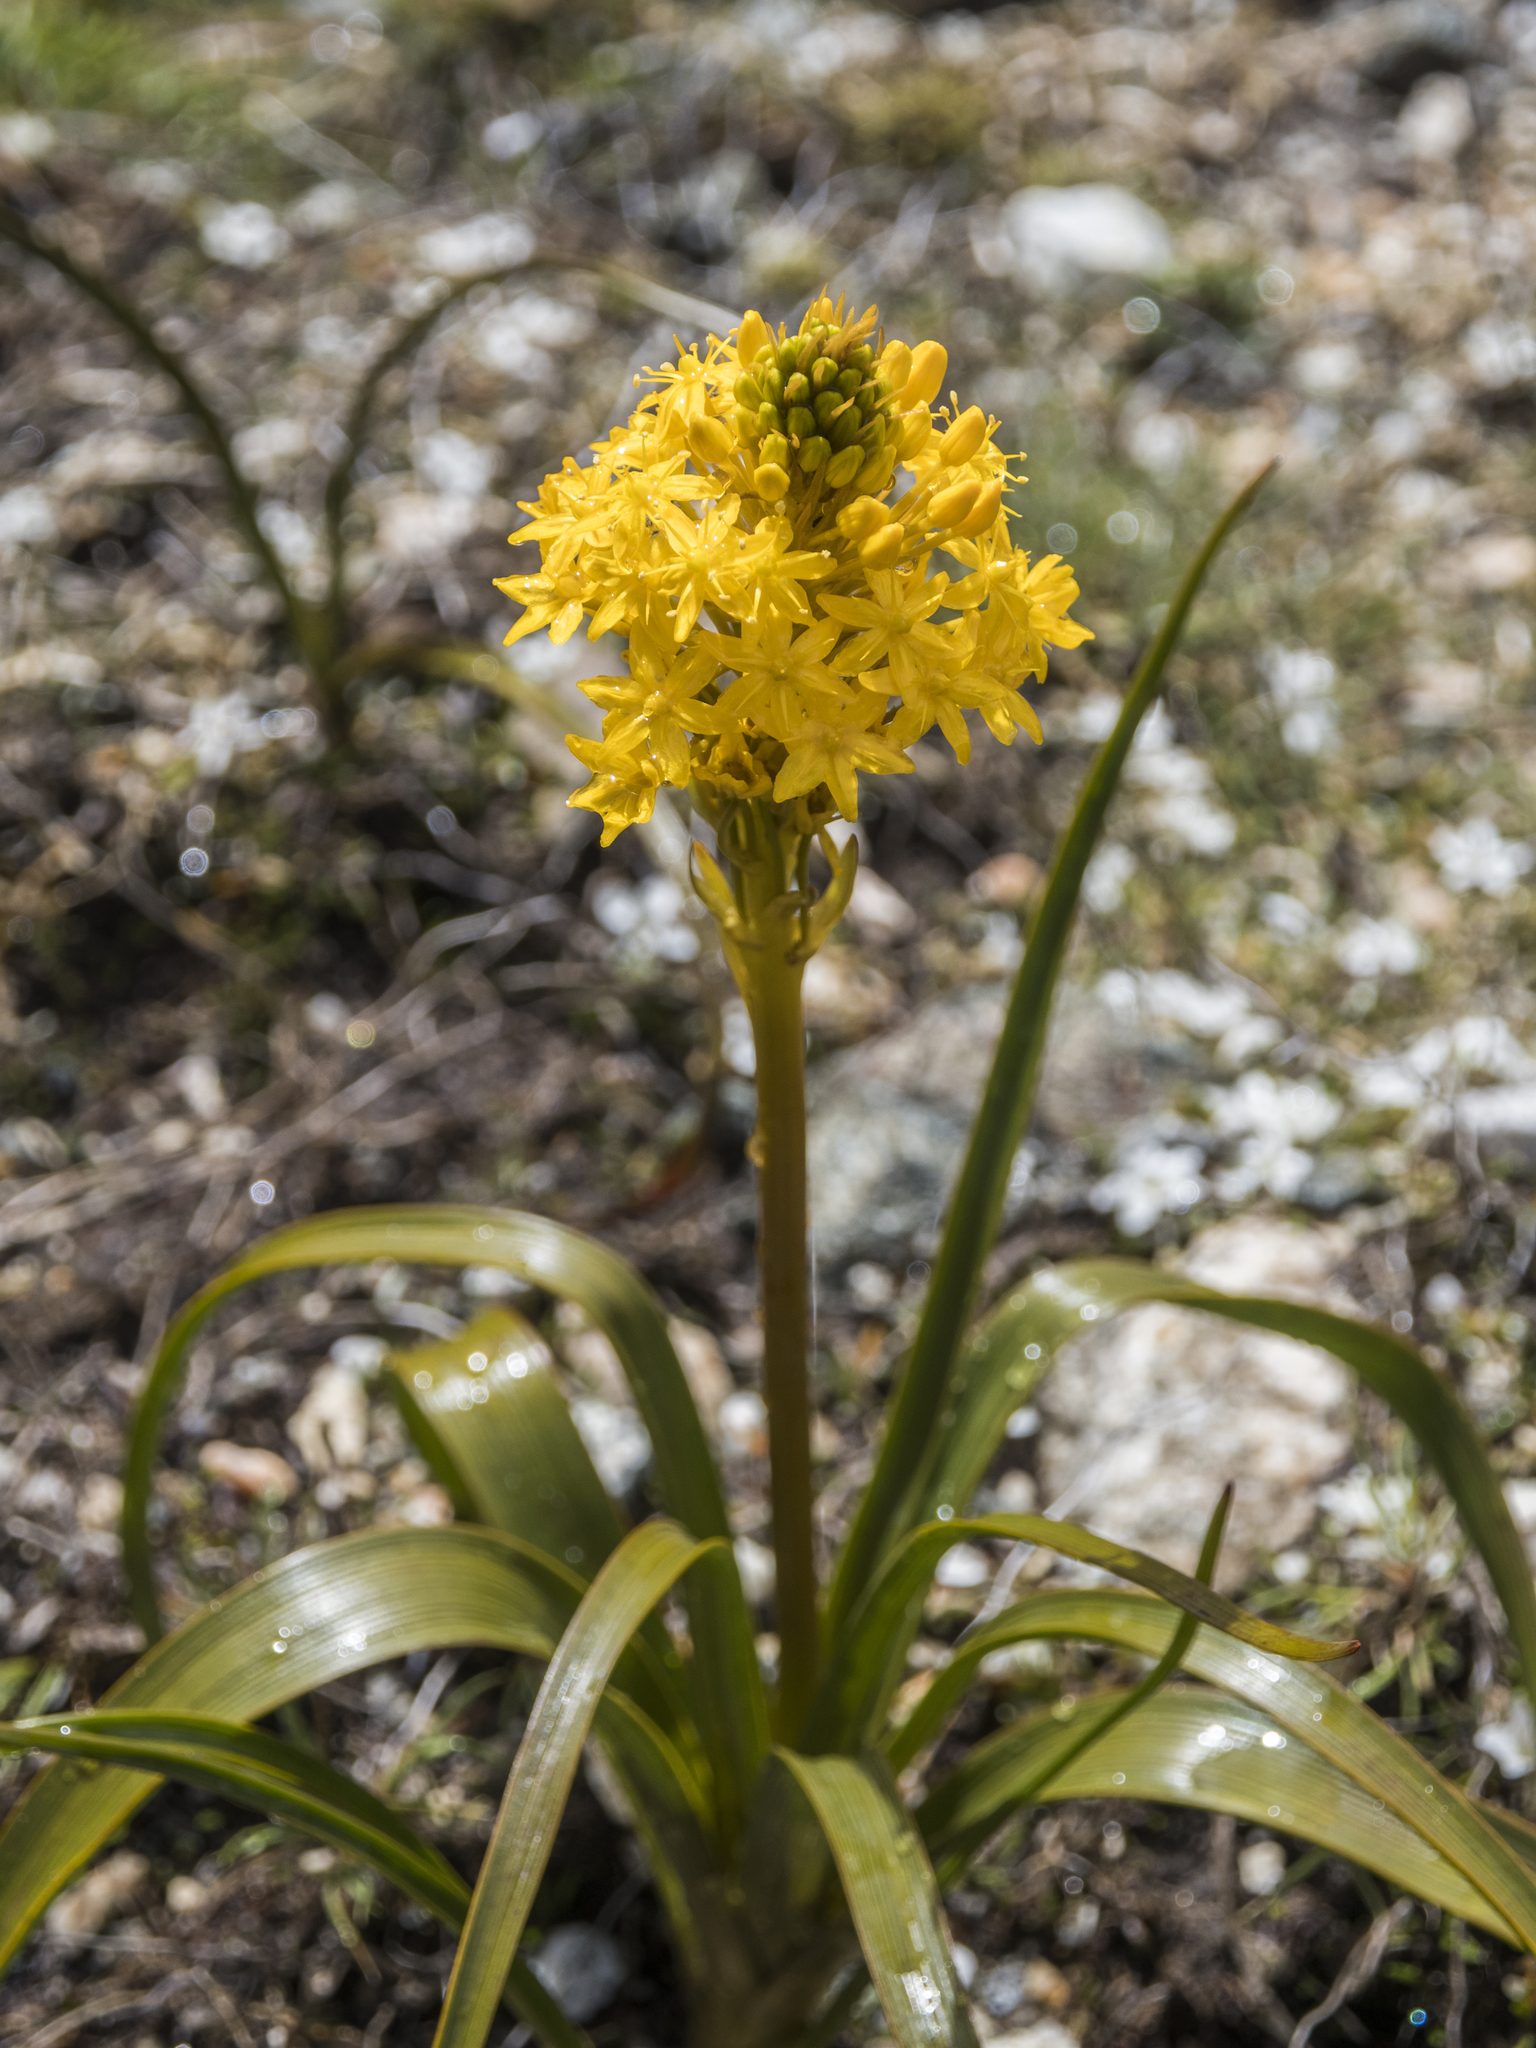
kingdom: Plantae
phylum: Tracheophyta
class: Liliopsida
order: Asparagales
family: Asphodelaceae
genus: Bulbinella
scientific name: Bulbinella gibbsii
